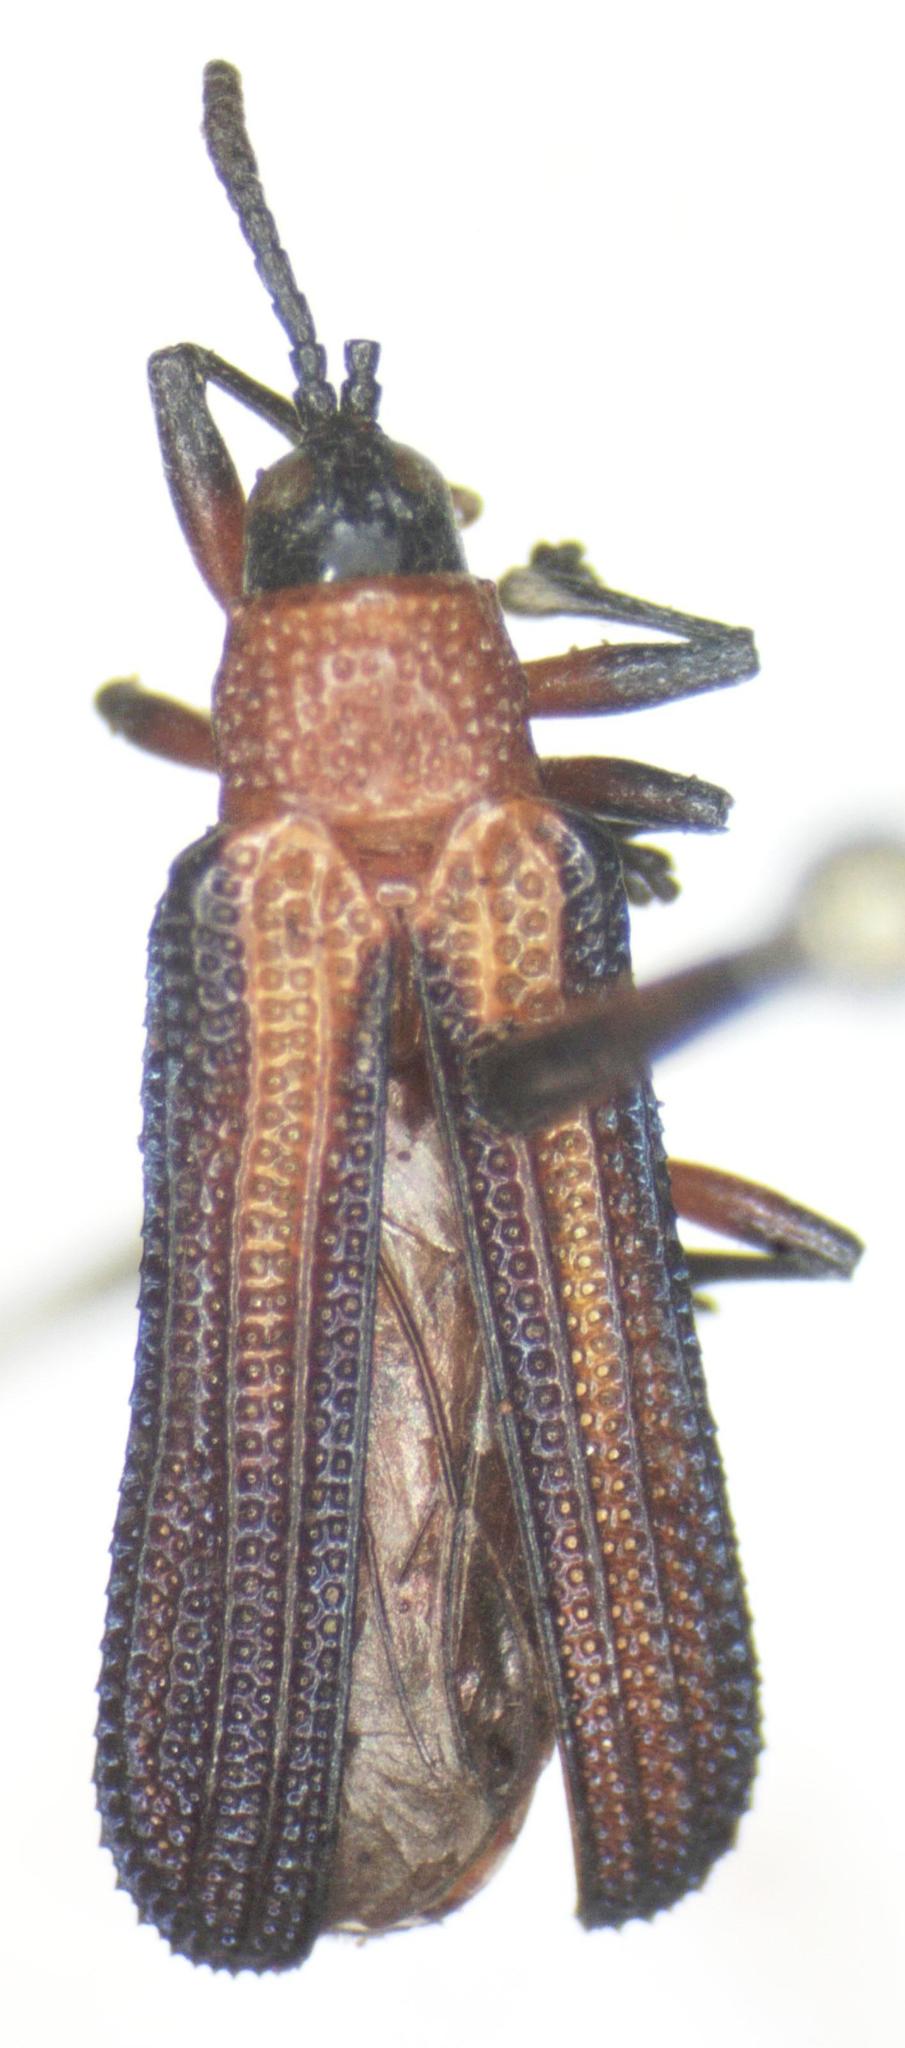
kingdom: Animalia
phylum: Arthropoda
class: Insecta
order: Coleoptera
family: Chrysomelidae
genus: Chalepus
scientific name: Chalepus bellulus
